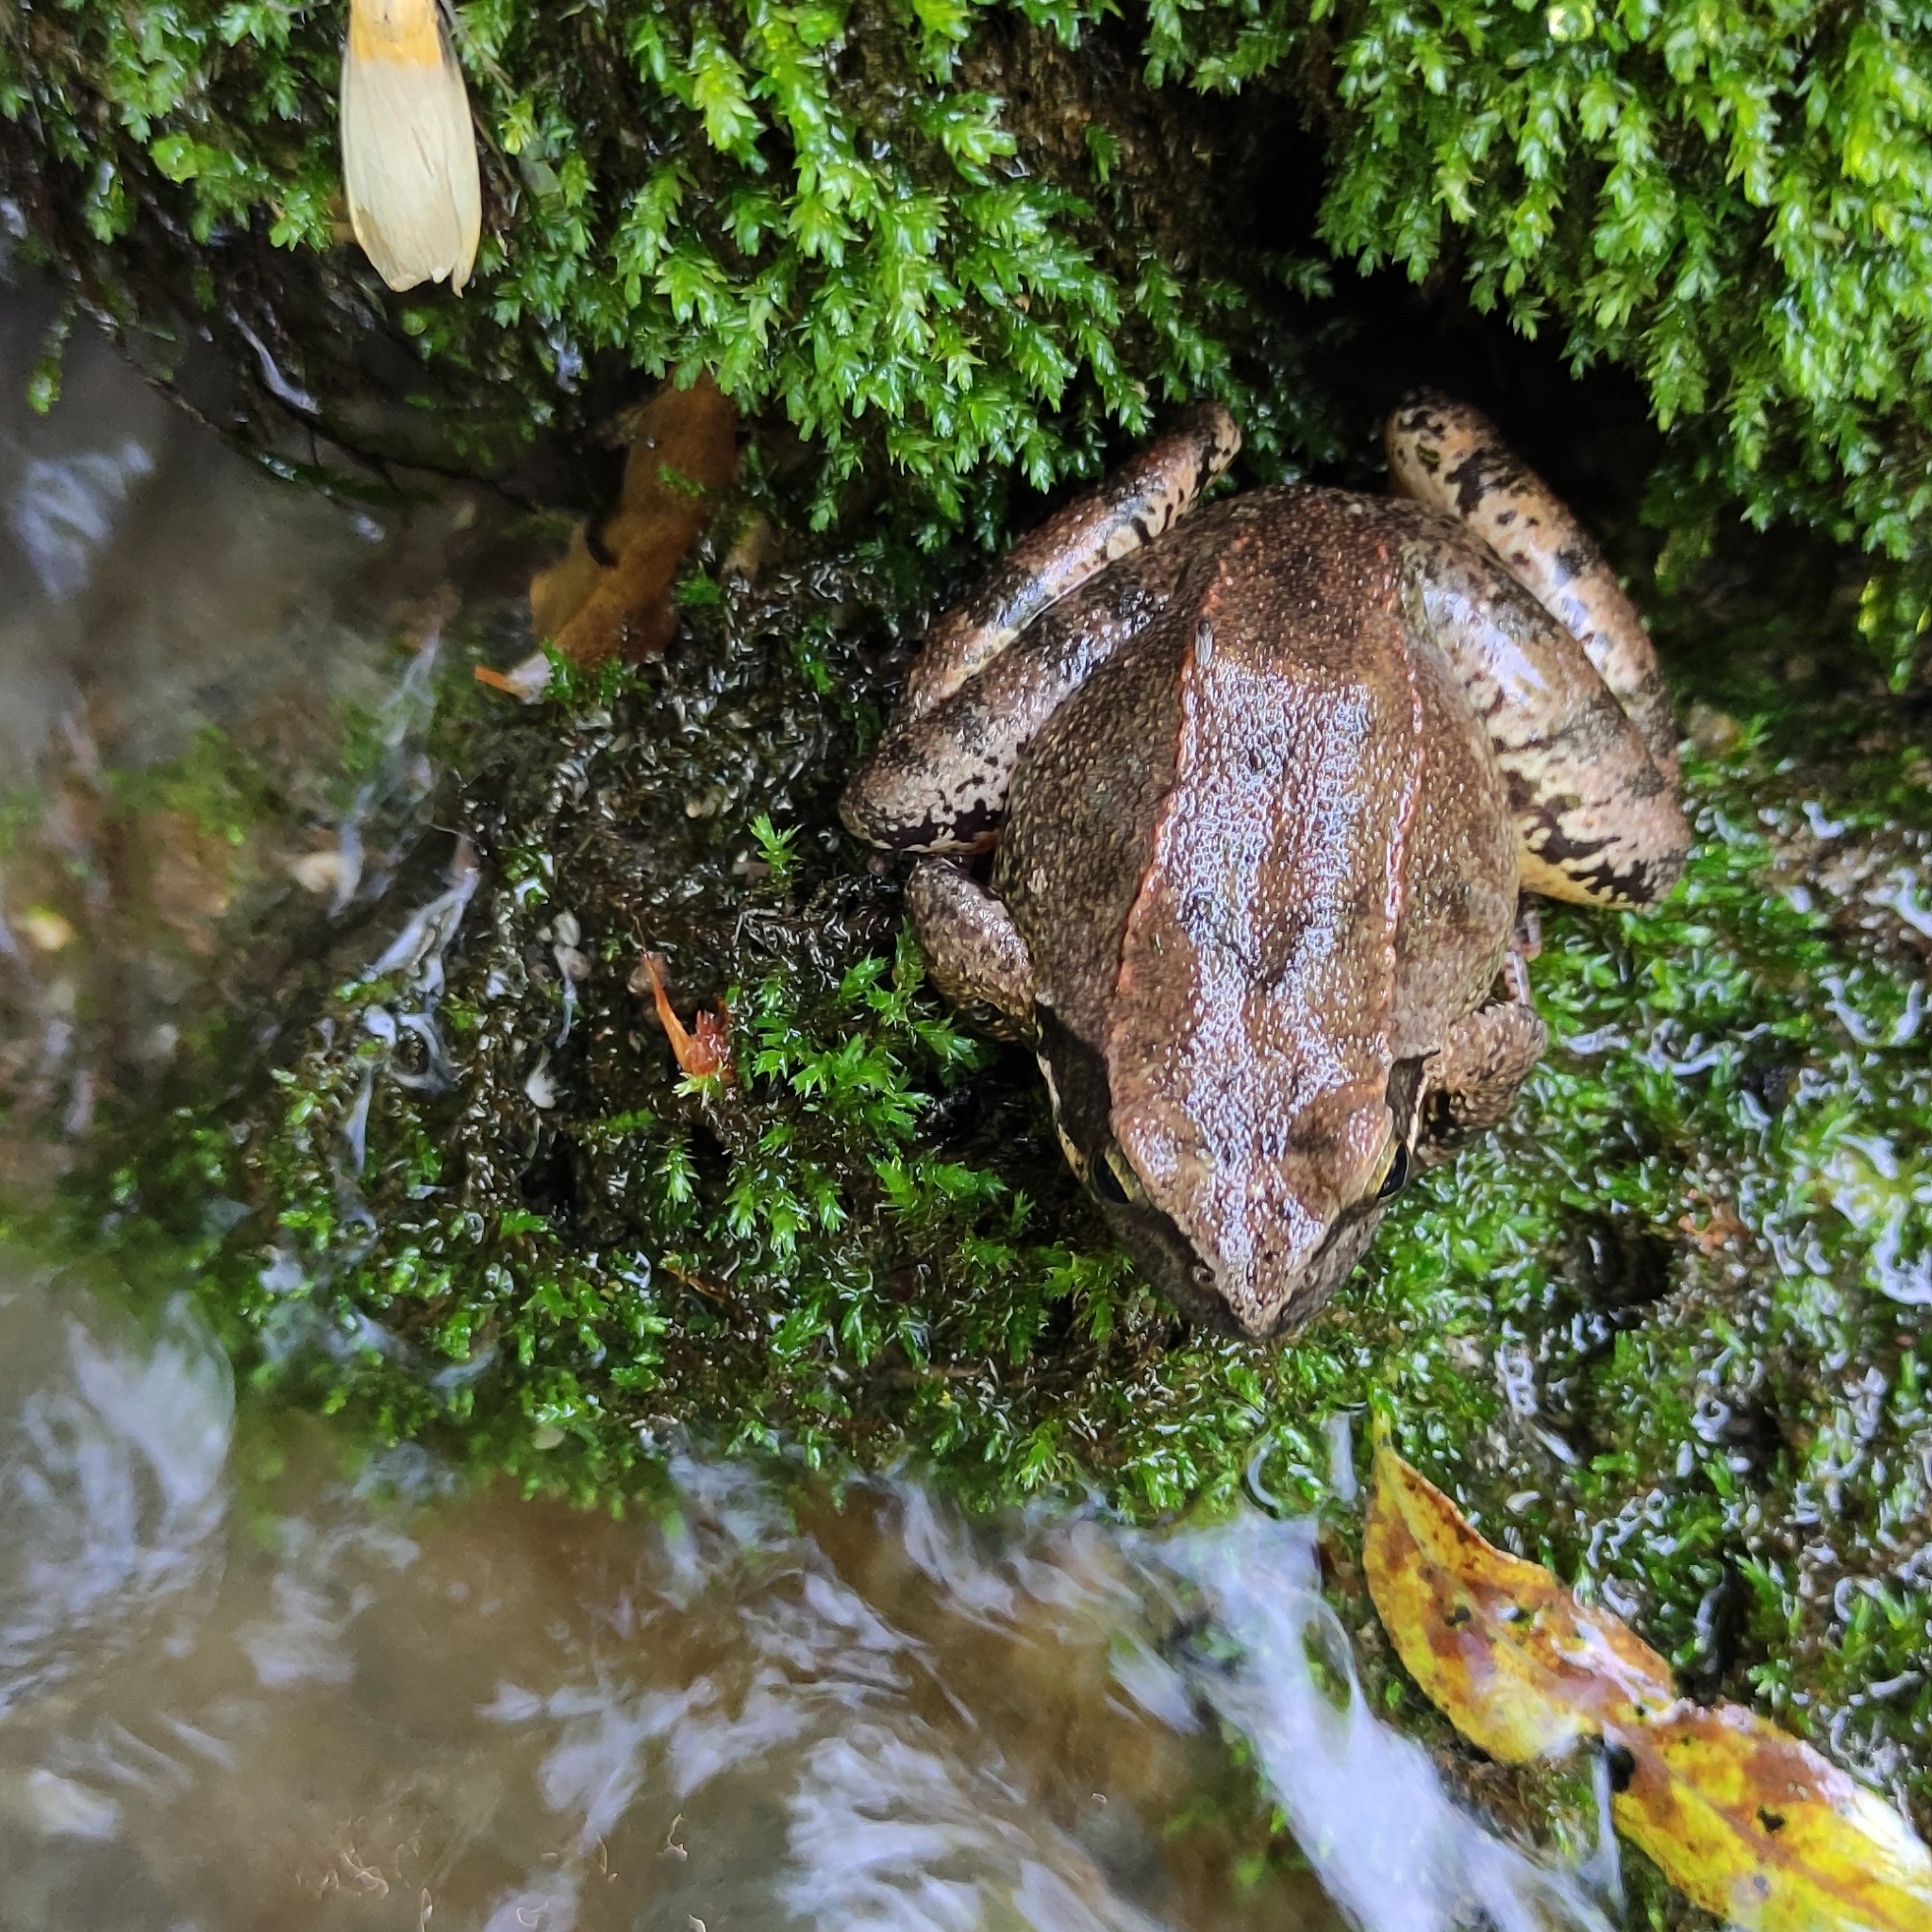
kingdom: Animalia
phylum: Chordata
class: Amphibia
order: Anura
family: Ranidae
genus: Rana
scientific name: Rana italica
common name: Italian stream frog
